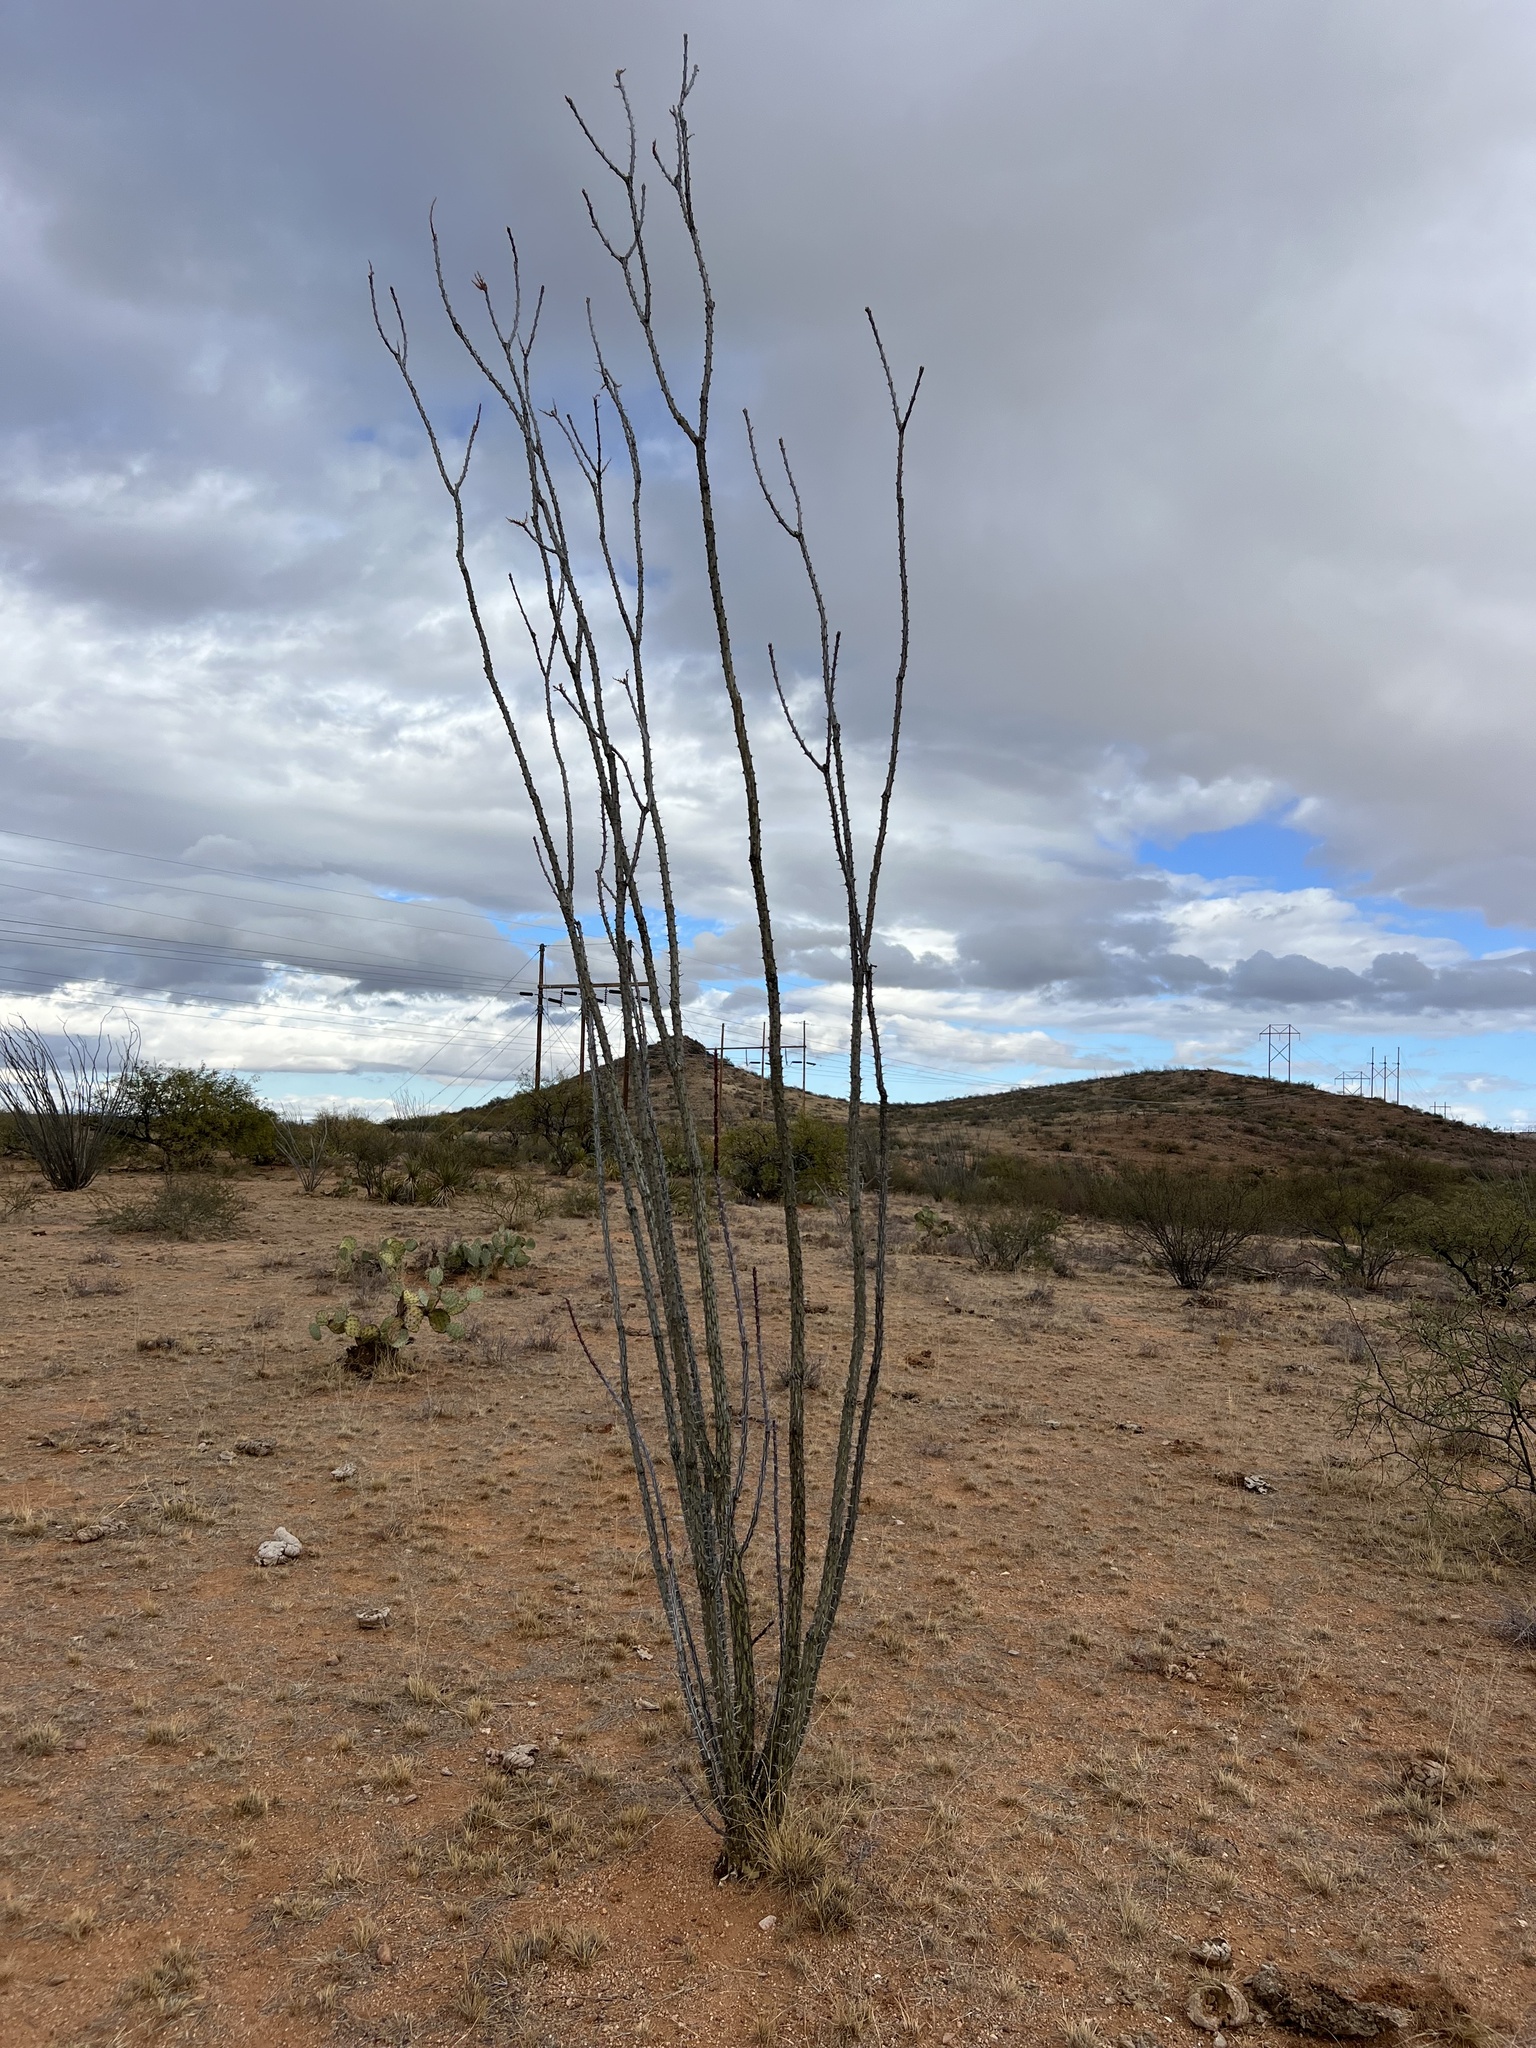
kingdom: Plantae
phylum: Tracheophyta
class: Magnoliopsida
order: Ericales
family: Fouquieriaceae
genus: Fouquieria
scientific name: Fouquieria splendens
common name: Vine-cactus
